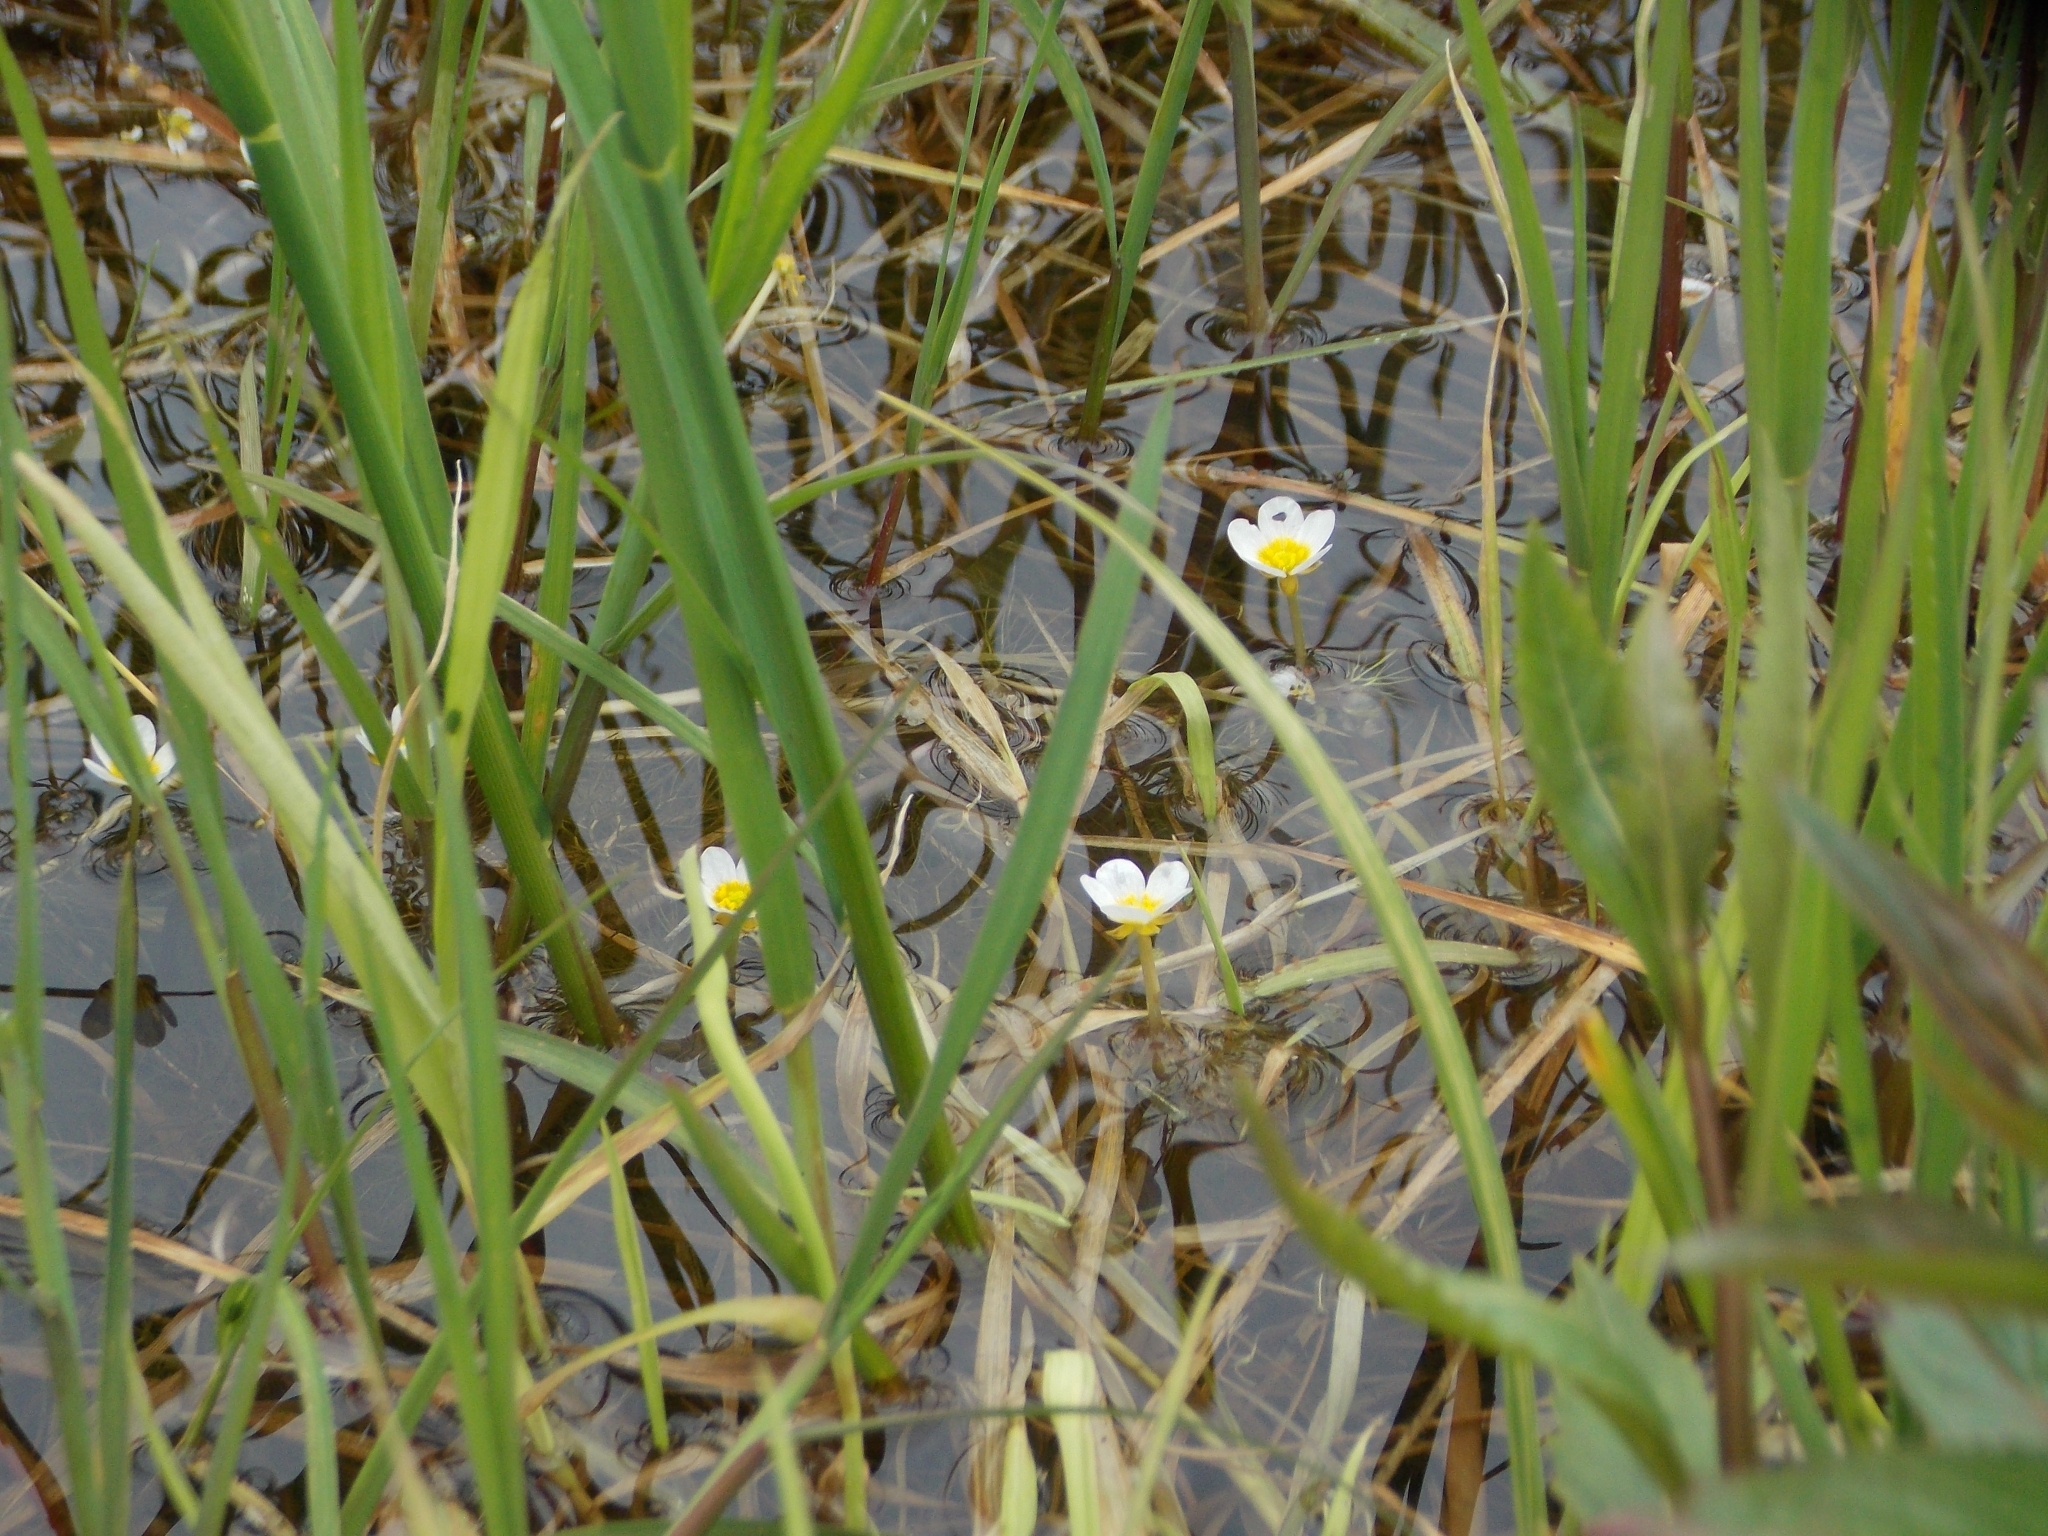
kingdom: Plantae
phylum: Tracheophyta
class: Magnoliopsida
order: Ranunculales
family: Ranunculaceae
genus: Ranunculus
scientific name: Ranunculus trichophyllus
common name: Thread-leaved water-crowfoot
